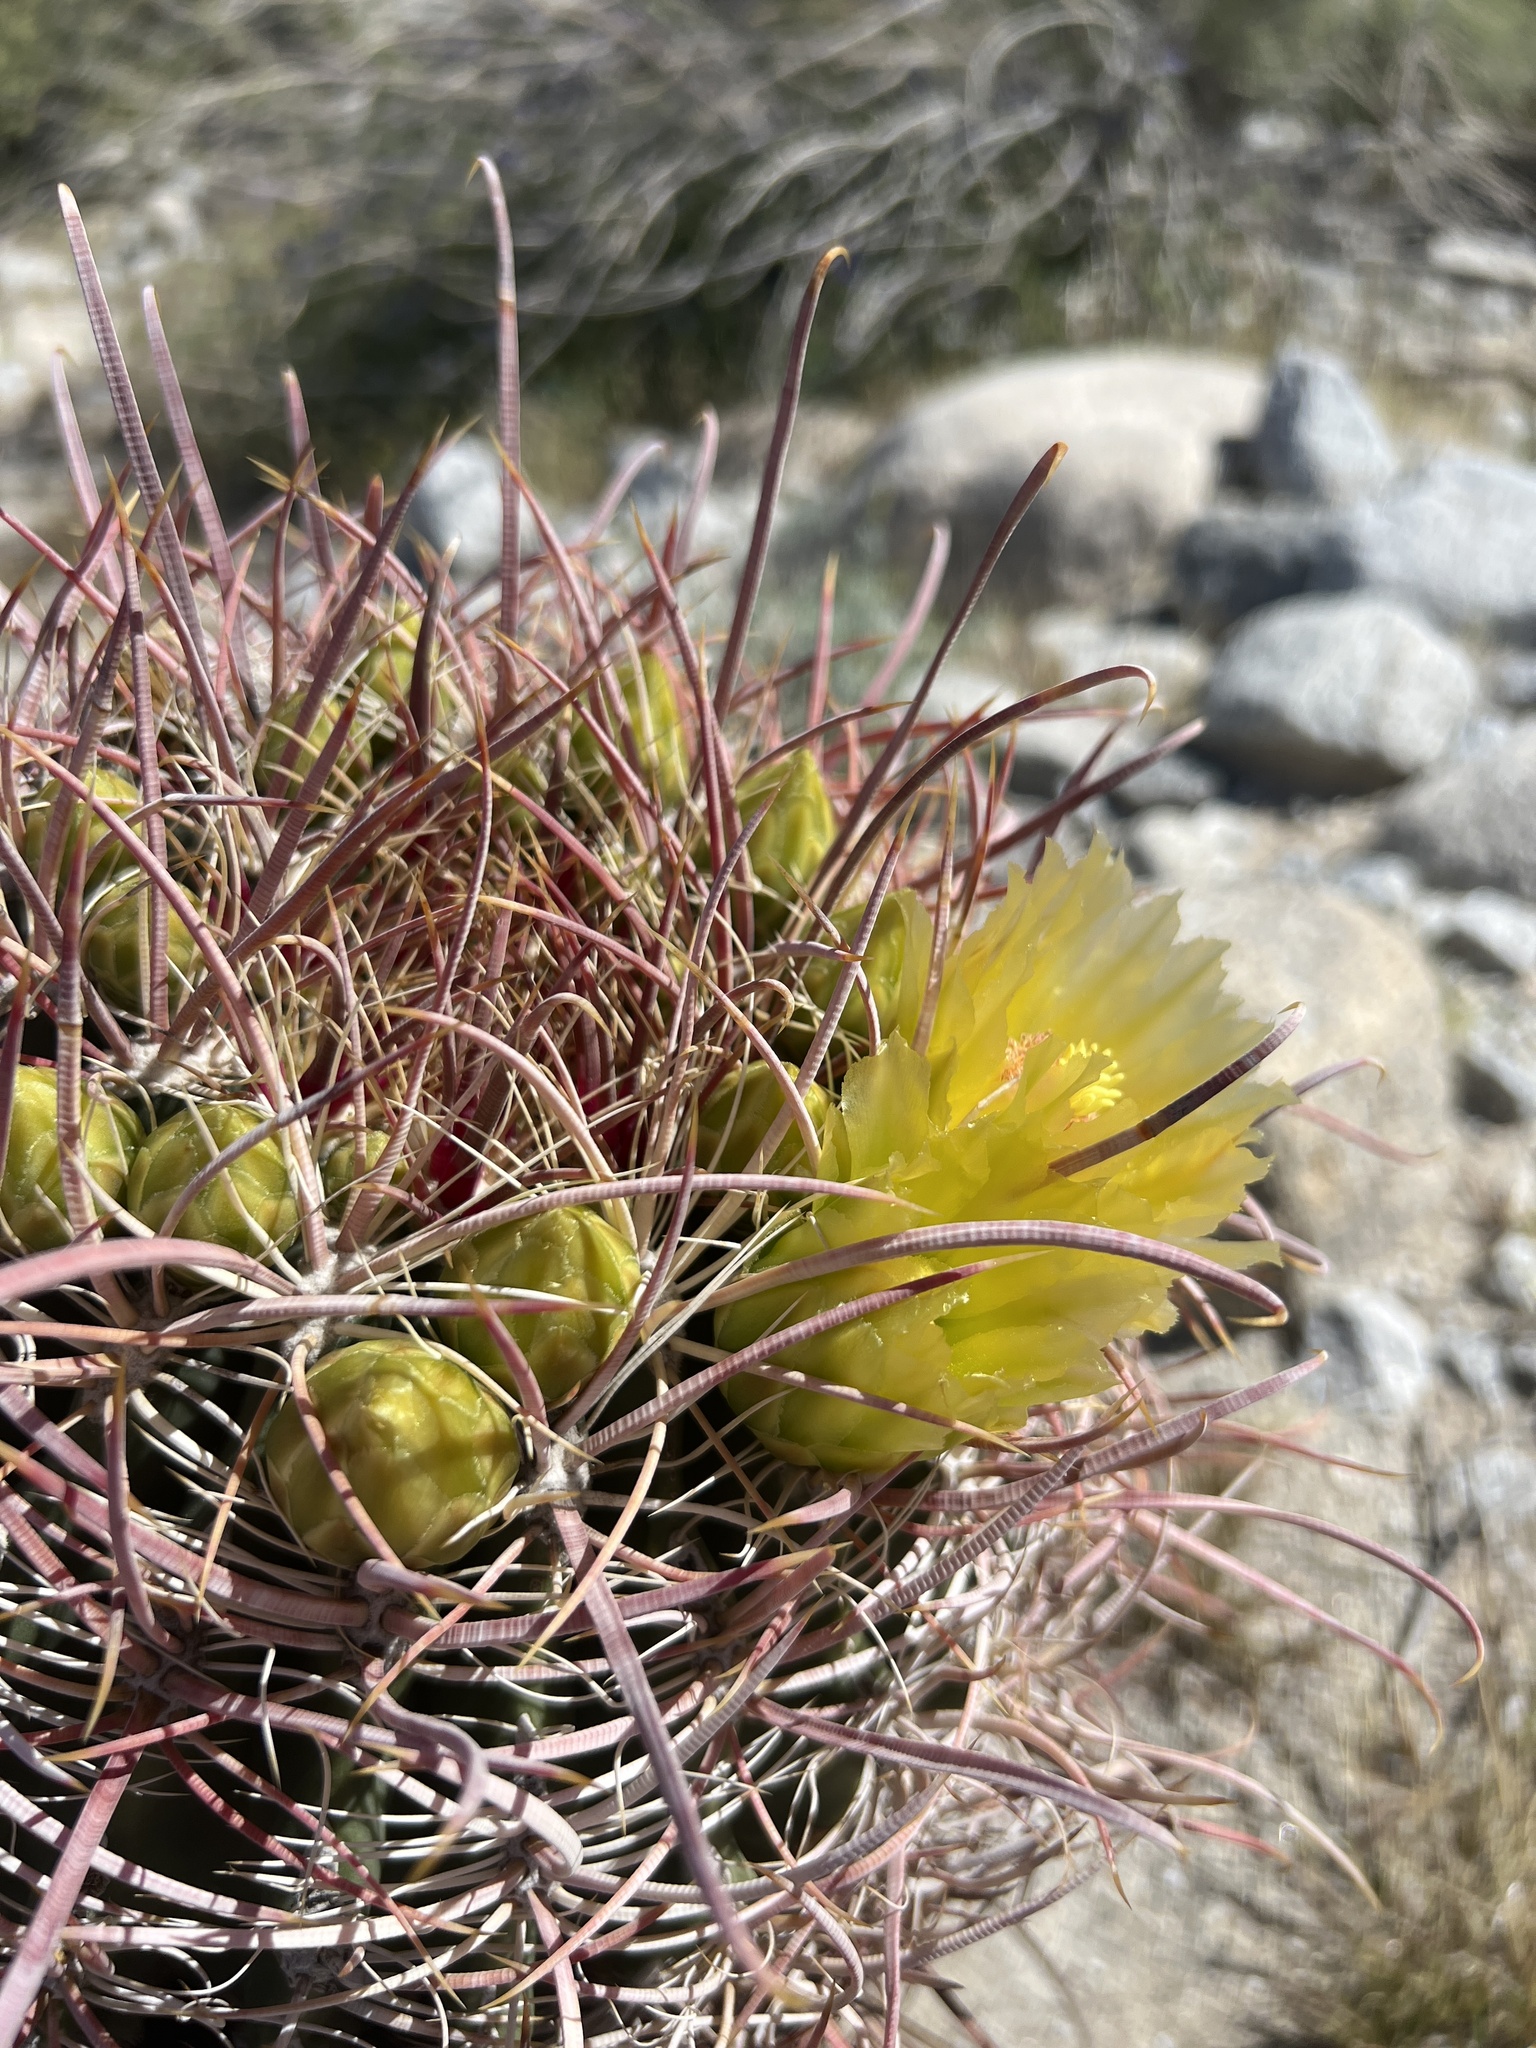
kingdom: Plantae
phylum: Tracheophyta
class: Magnoliopsida
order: Caryophyllales
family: Cactaceae
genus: Ferocactus
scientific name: Ferocactus cylindraceus
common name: California barrel cactus
